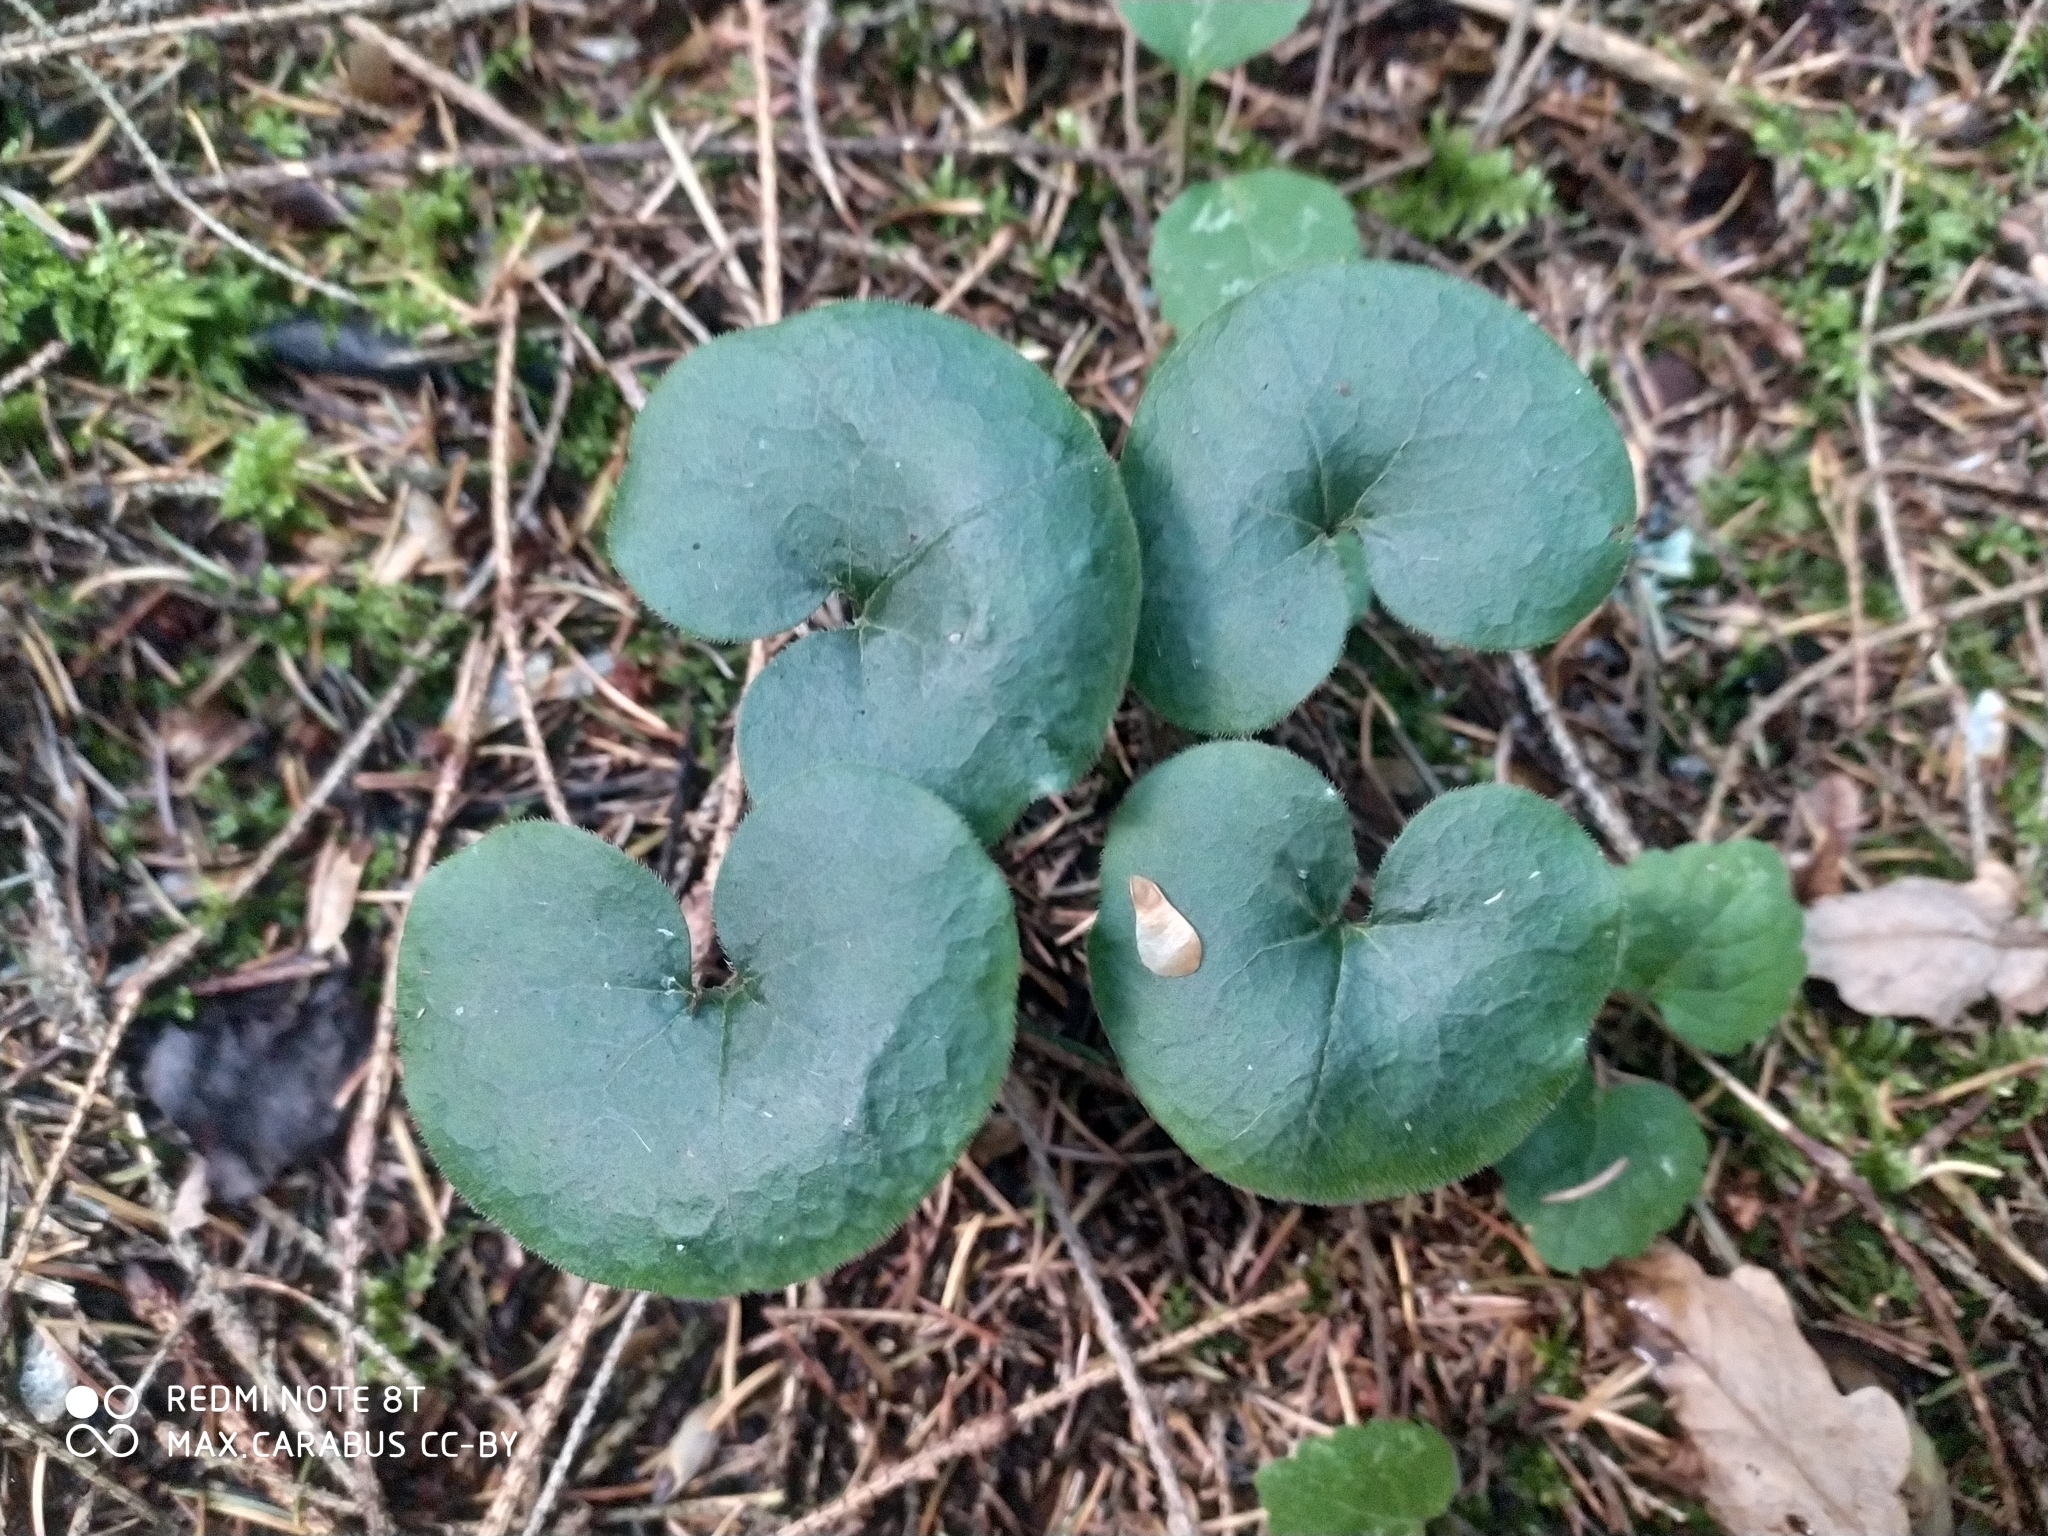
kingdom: Plantae
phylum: Tracheophyta
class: Magnoliopsida
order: Piperales
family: Aristolochiaceae
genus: Asarum
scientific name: Asarum europaeum
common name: Asarabacca
